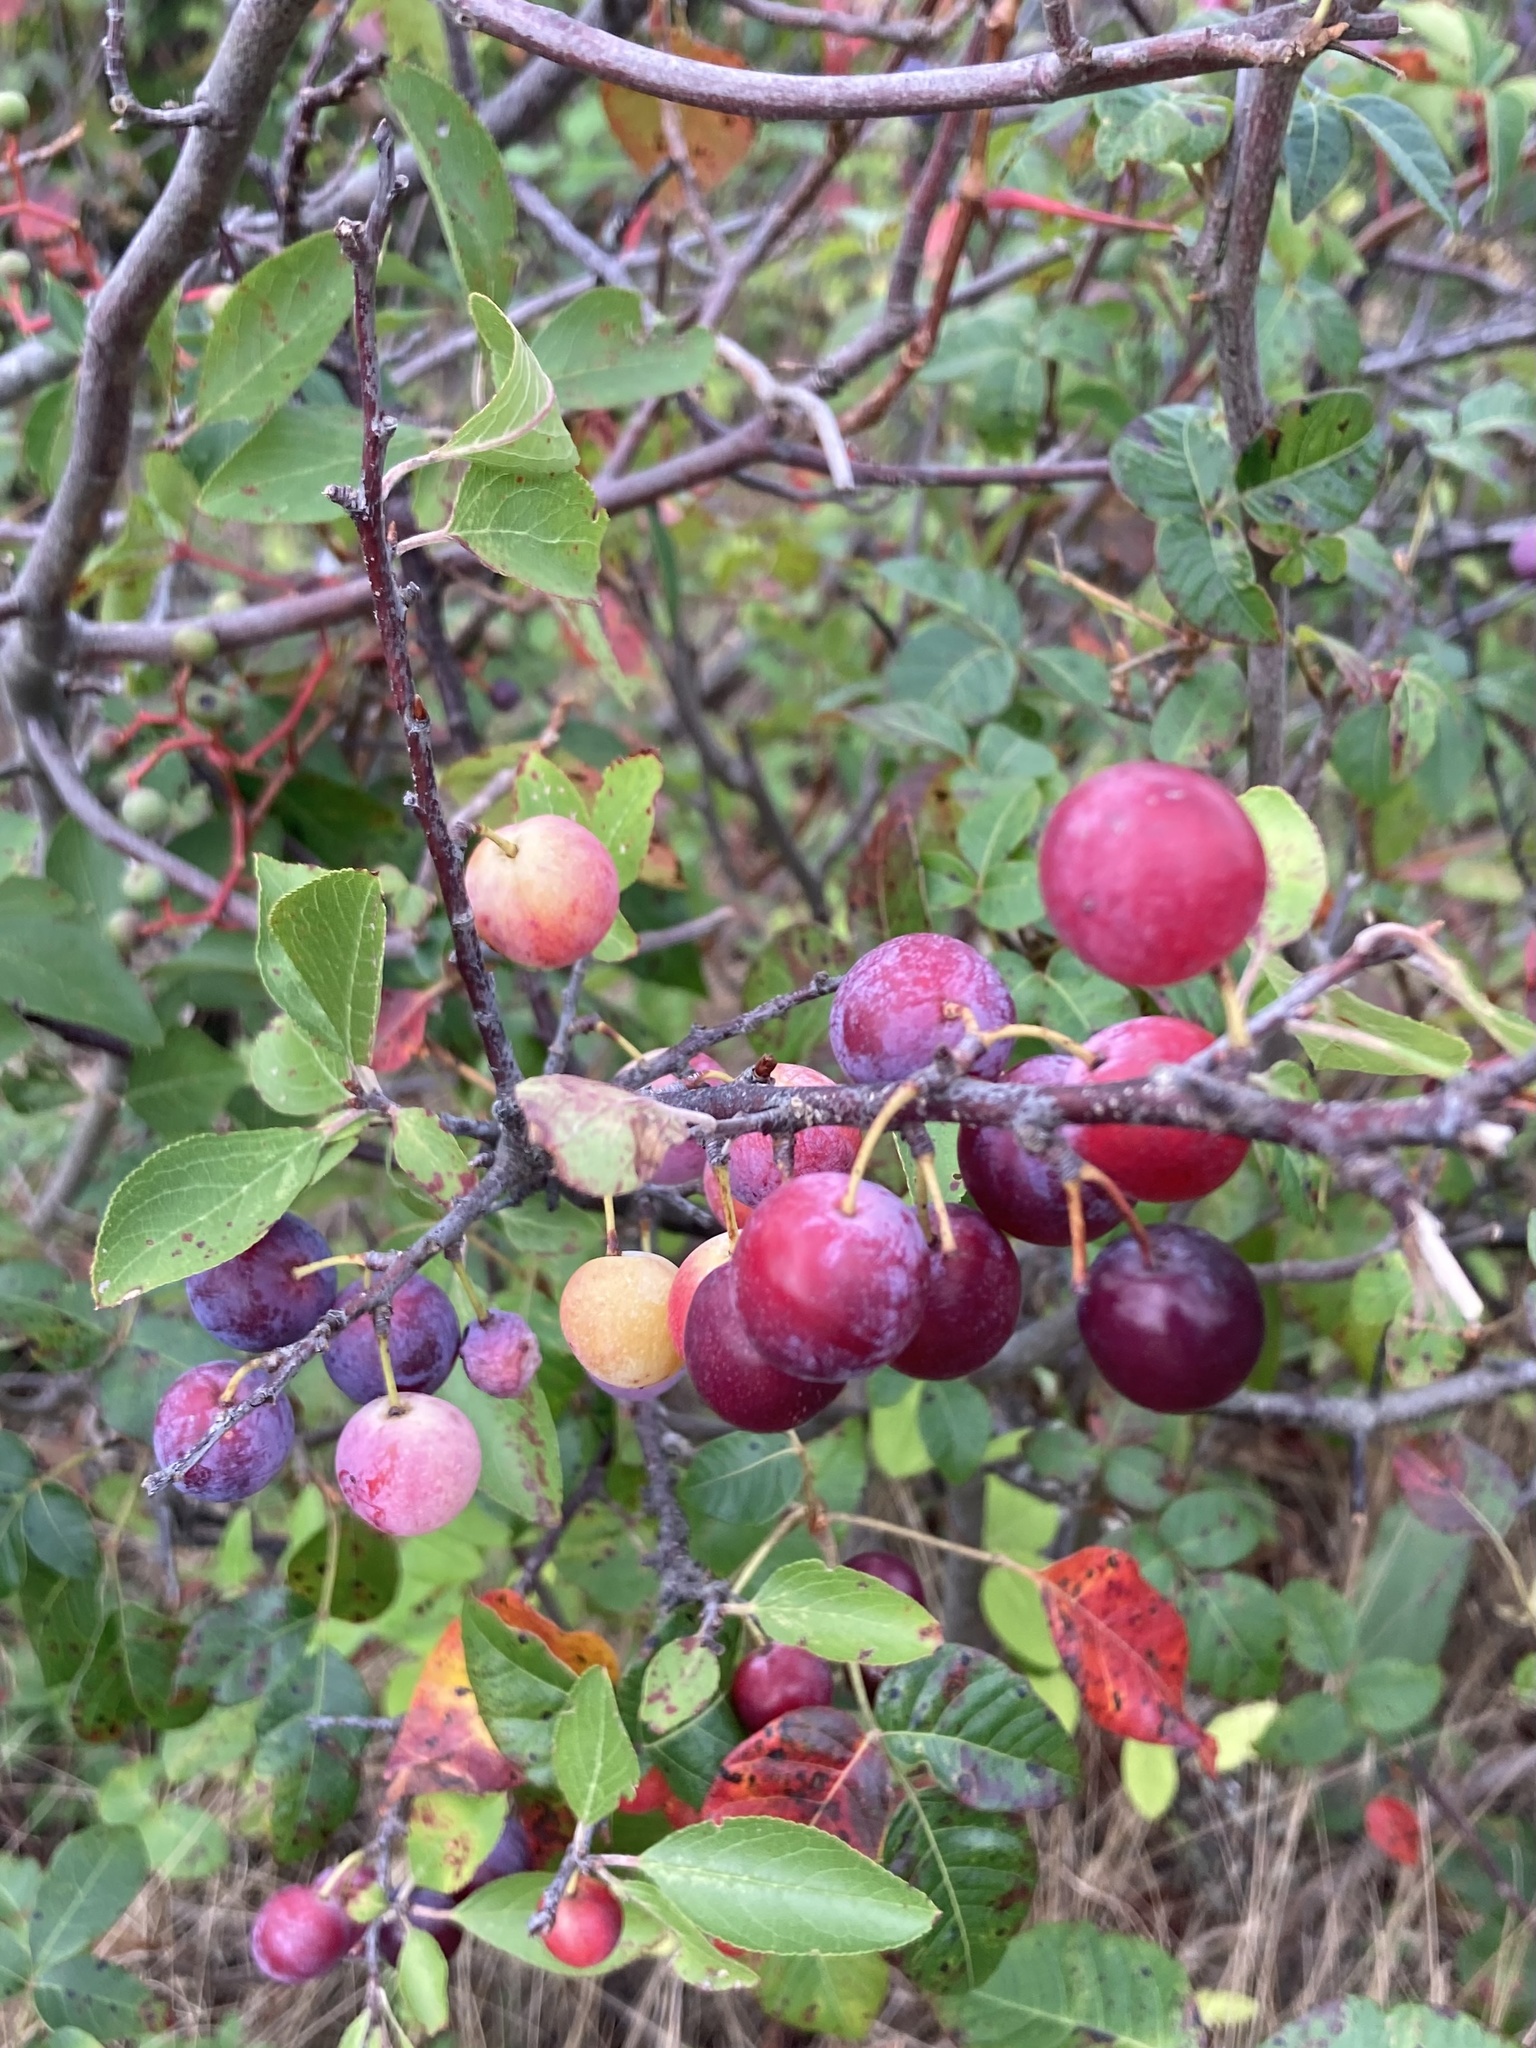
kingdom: Plantae
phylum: Tracheophyta
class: Magnoliopsida
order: Rosales
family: Rosaceae
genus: Prunus
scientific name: Prunus maritima
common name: Beach plum
